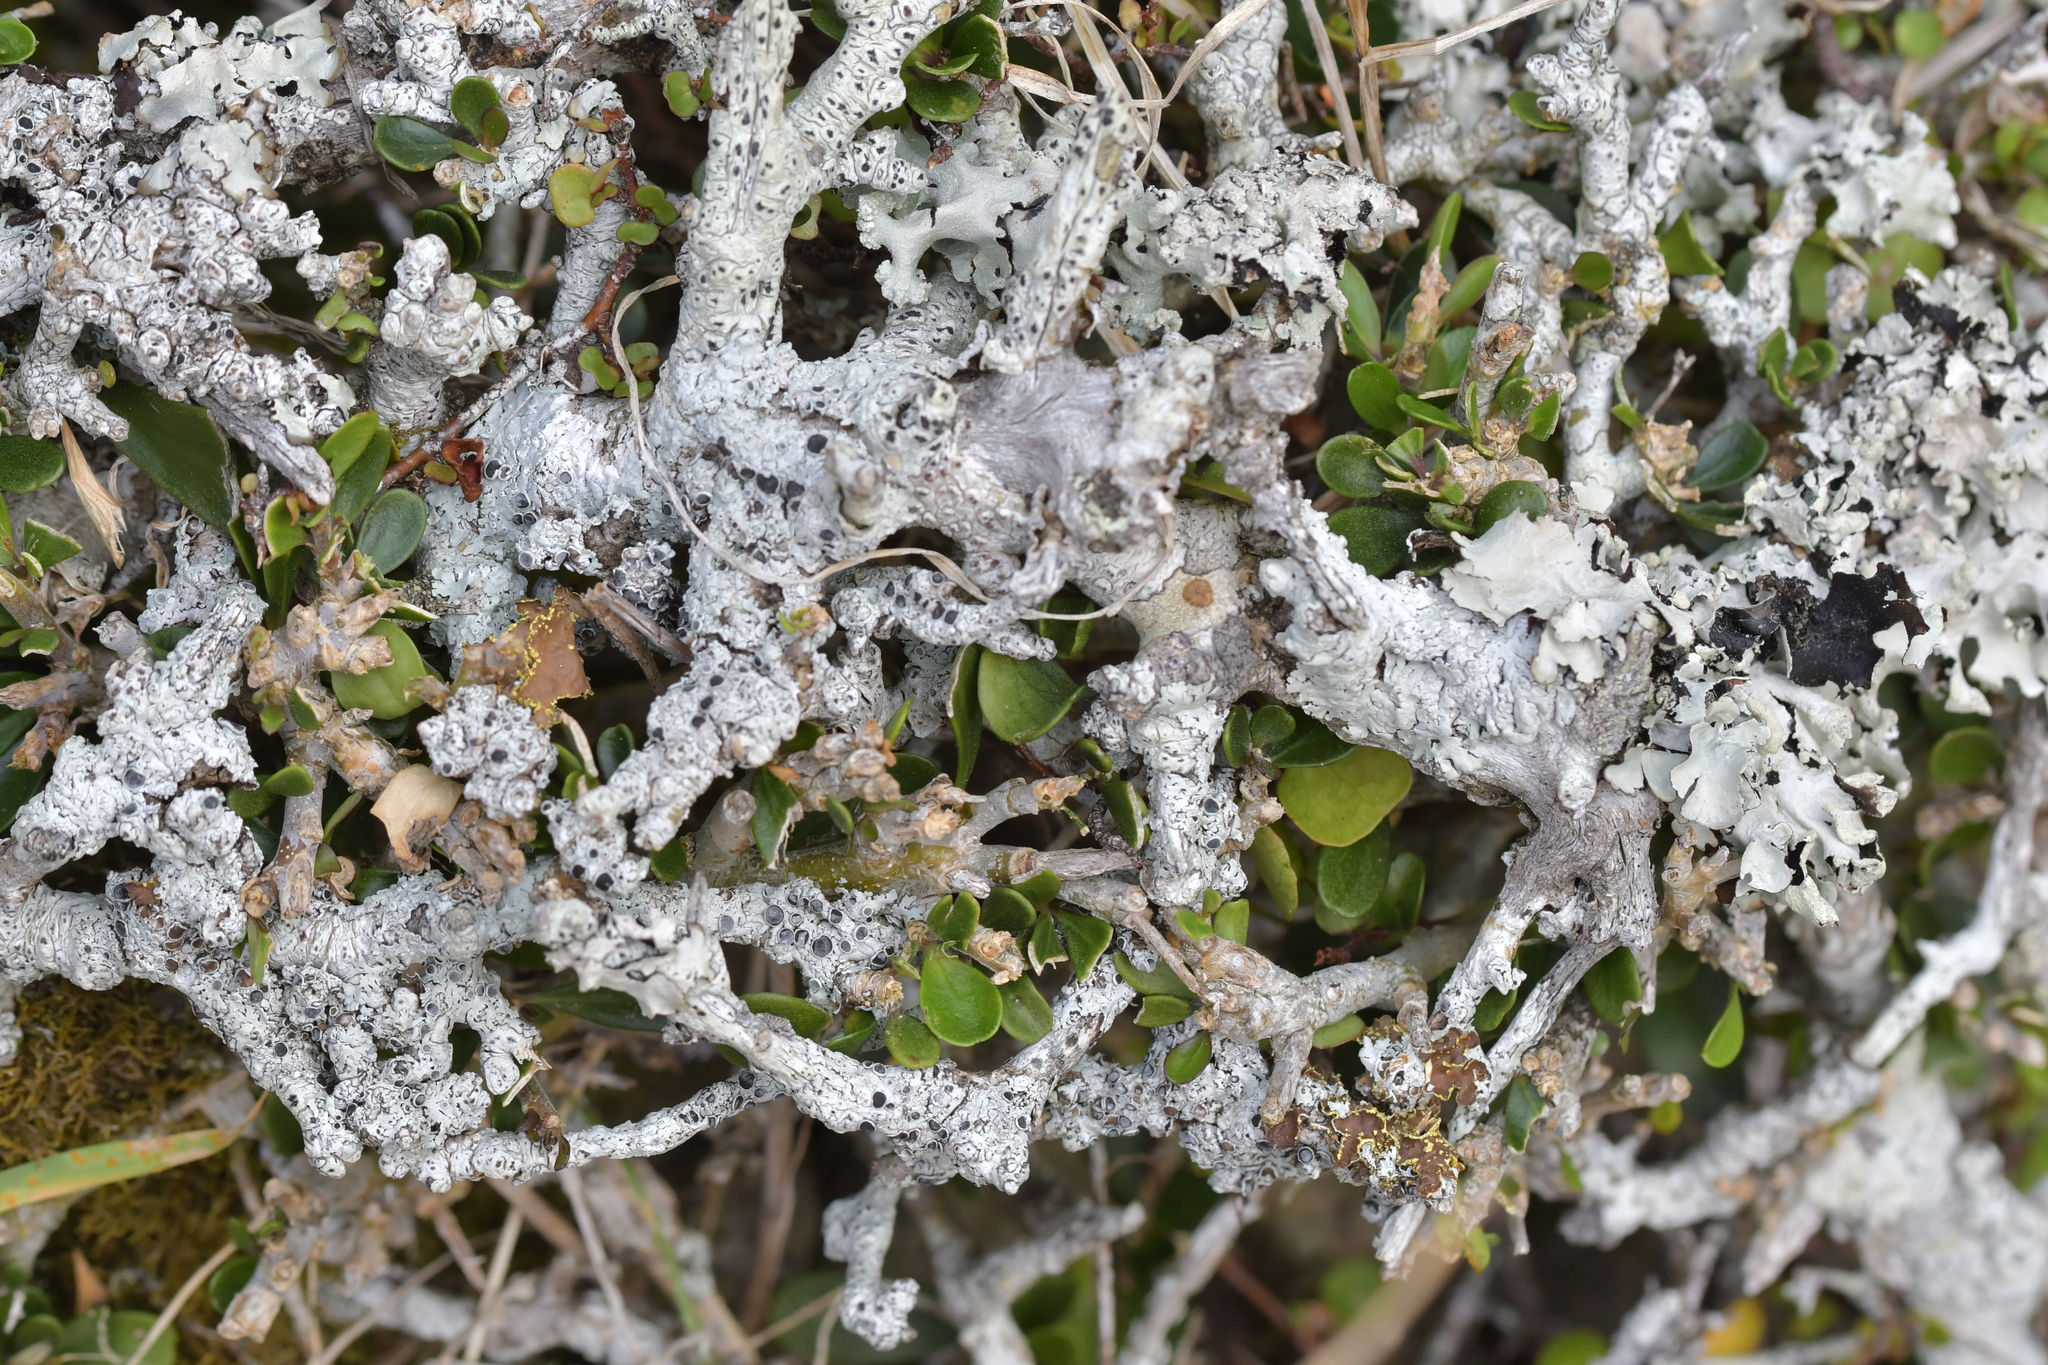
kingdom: Plantae
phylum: Tracheophyta
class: Magnoliopsida
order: Malpighiales
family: Violaceae
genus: Melicytus
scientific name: Melicytus crassifolius
